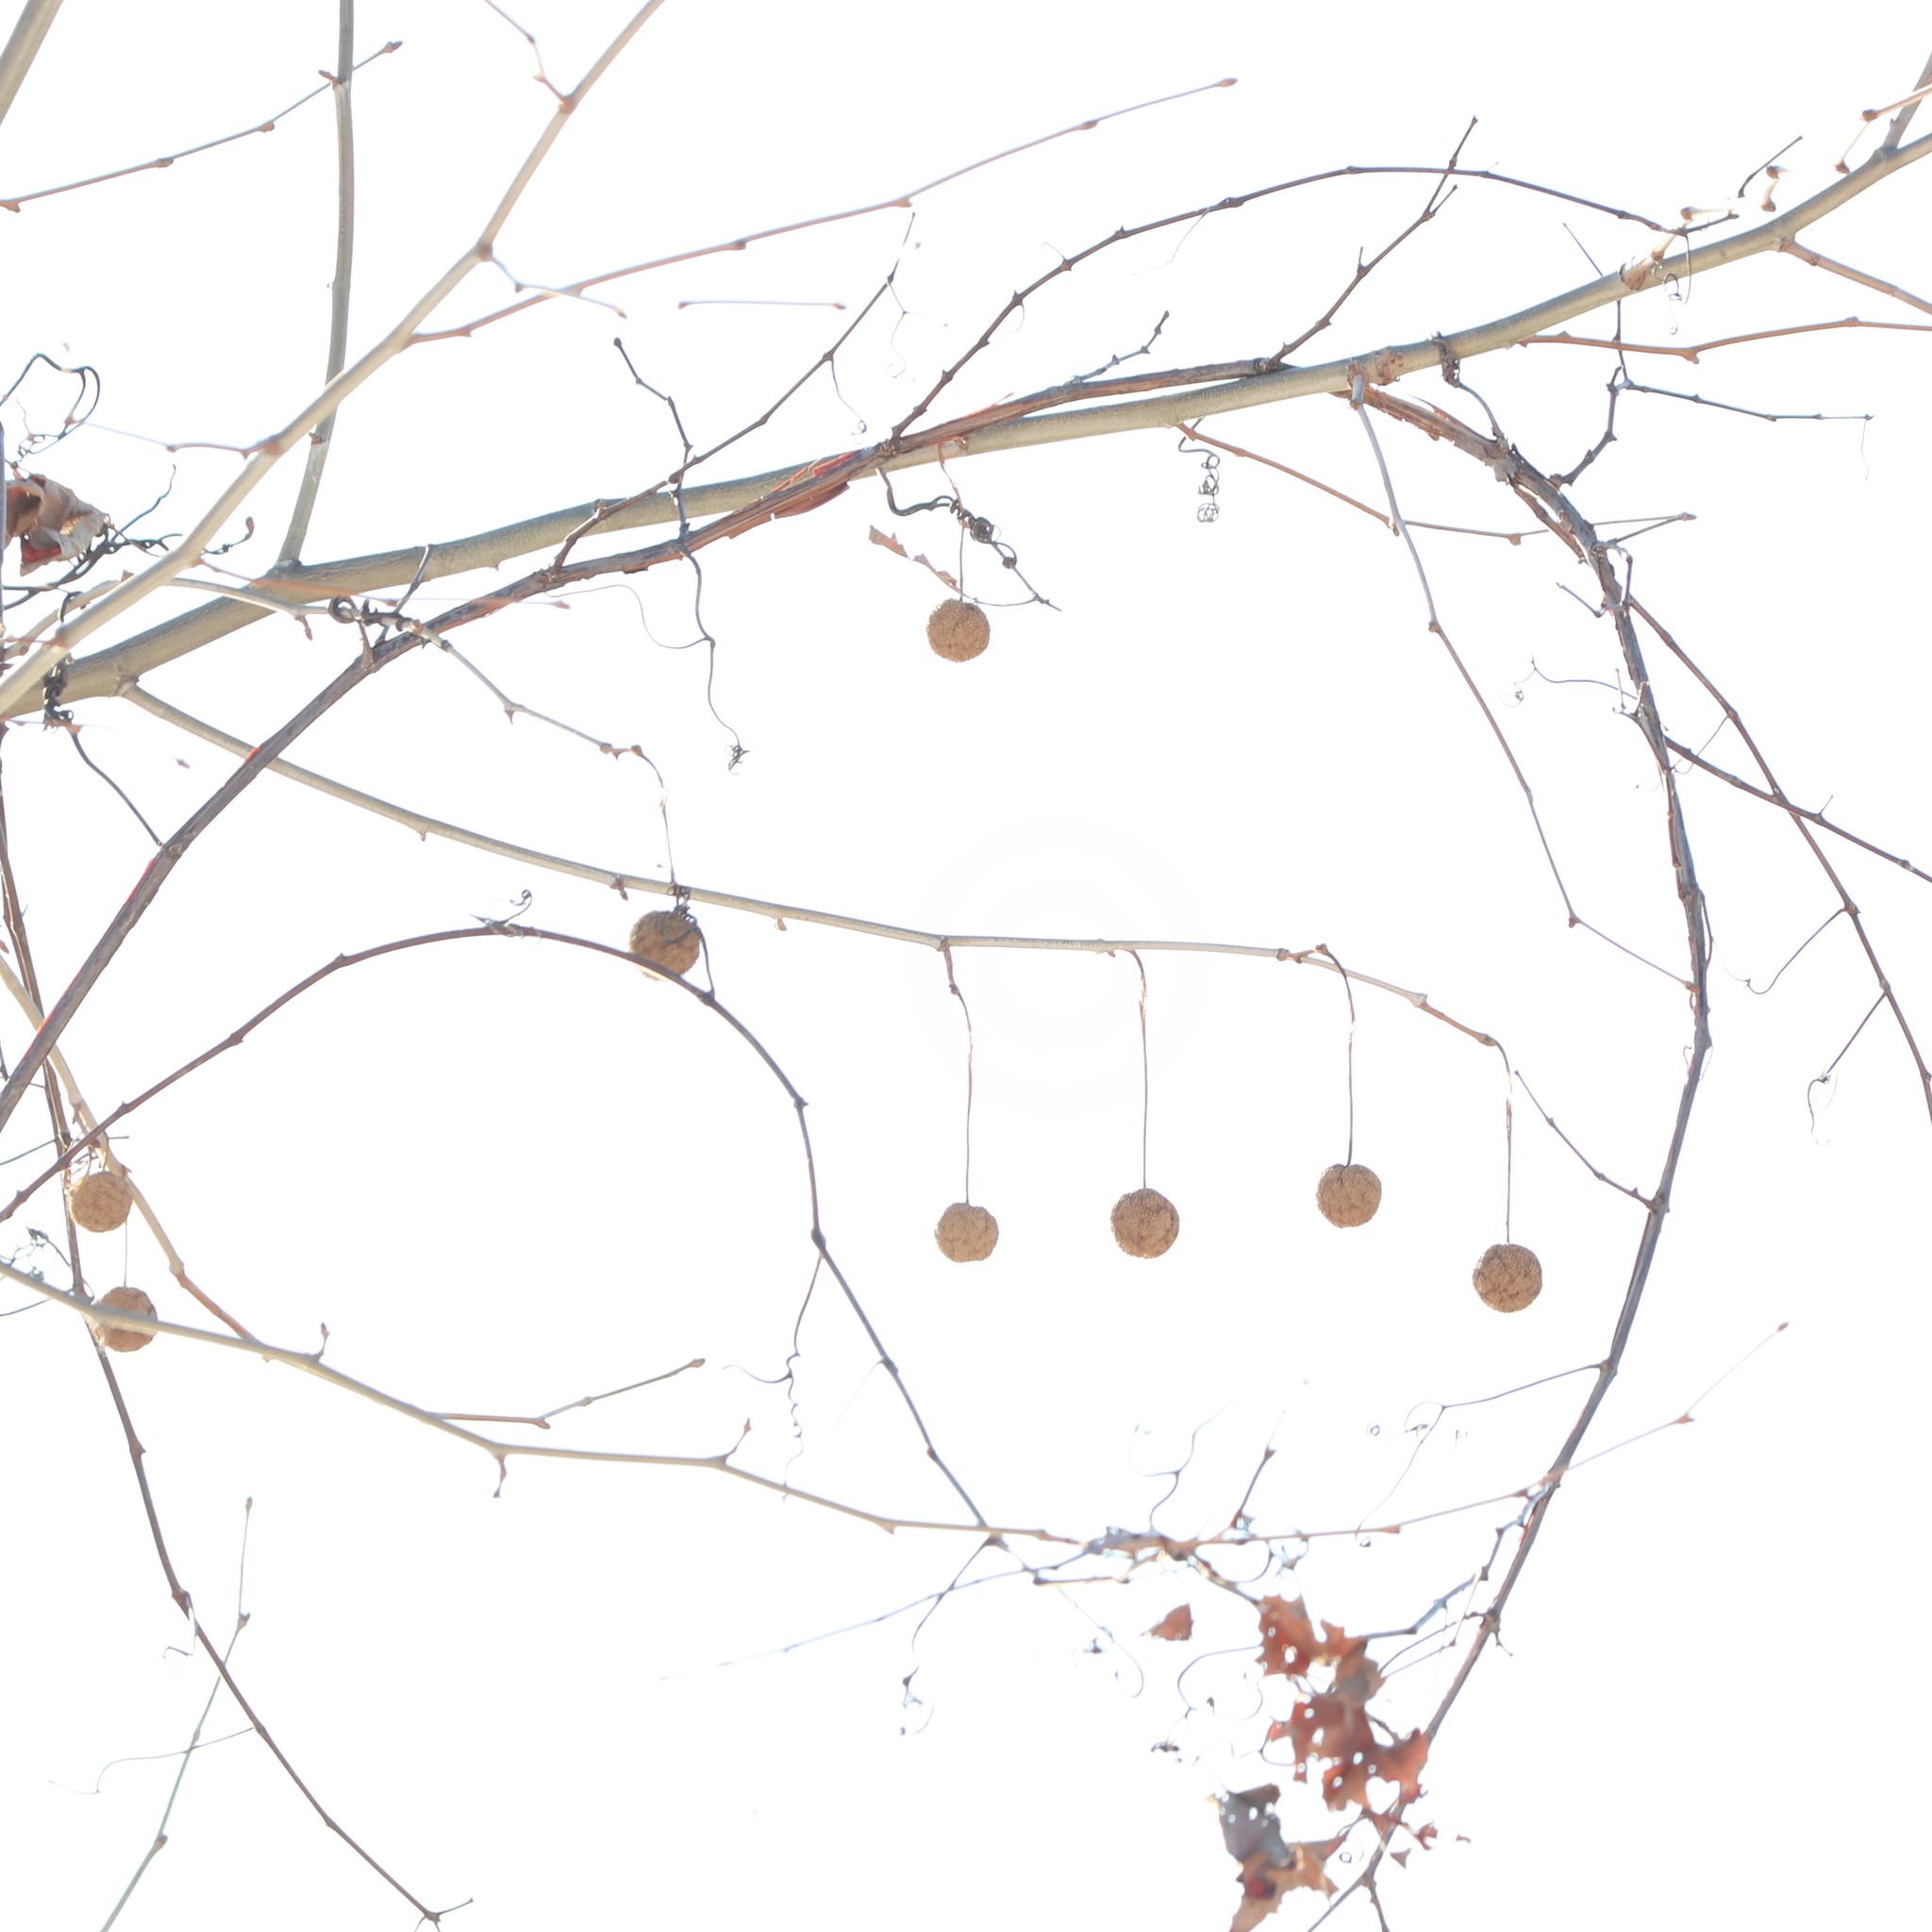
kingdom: Plantae
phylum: Tracheophyta
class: Magnoliopsida
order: Proteales
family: Platanaceae
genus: Platanus
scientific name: Platanus occidentalis
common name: American sycamore
